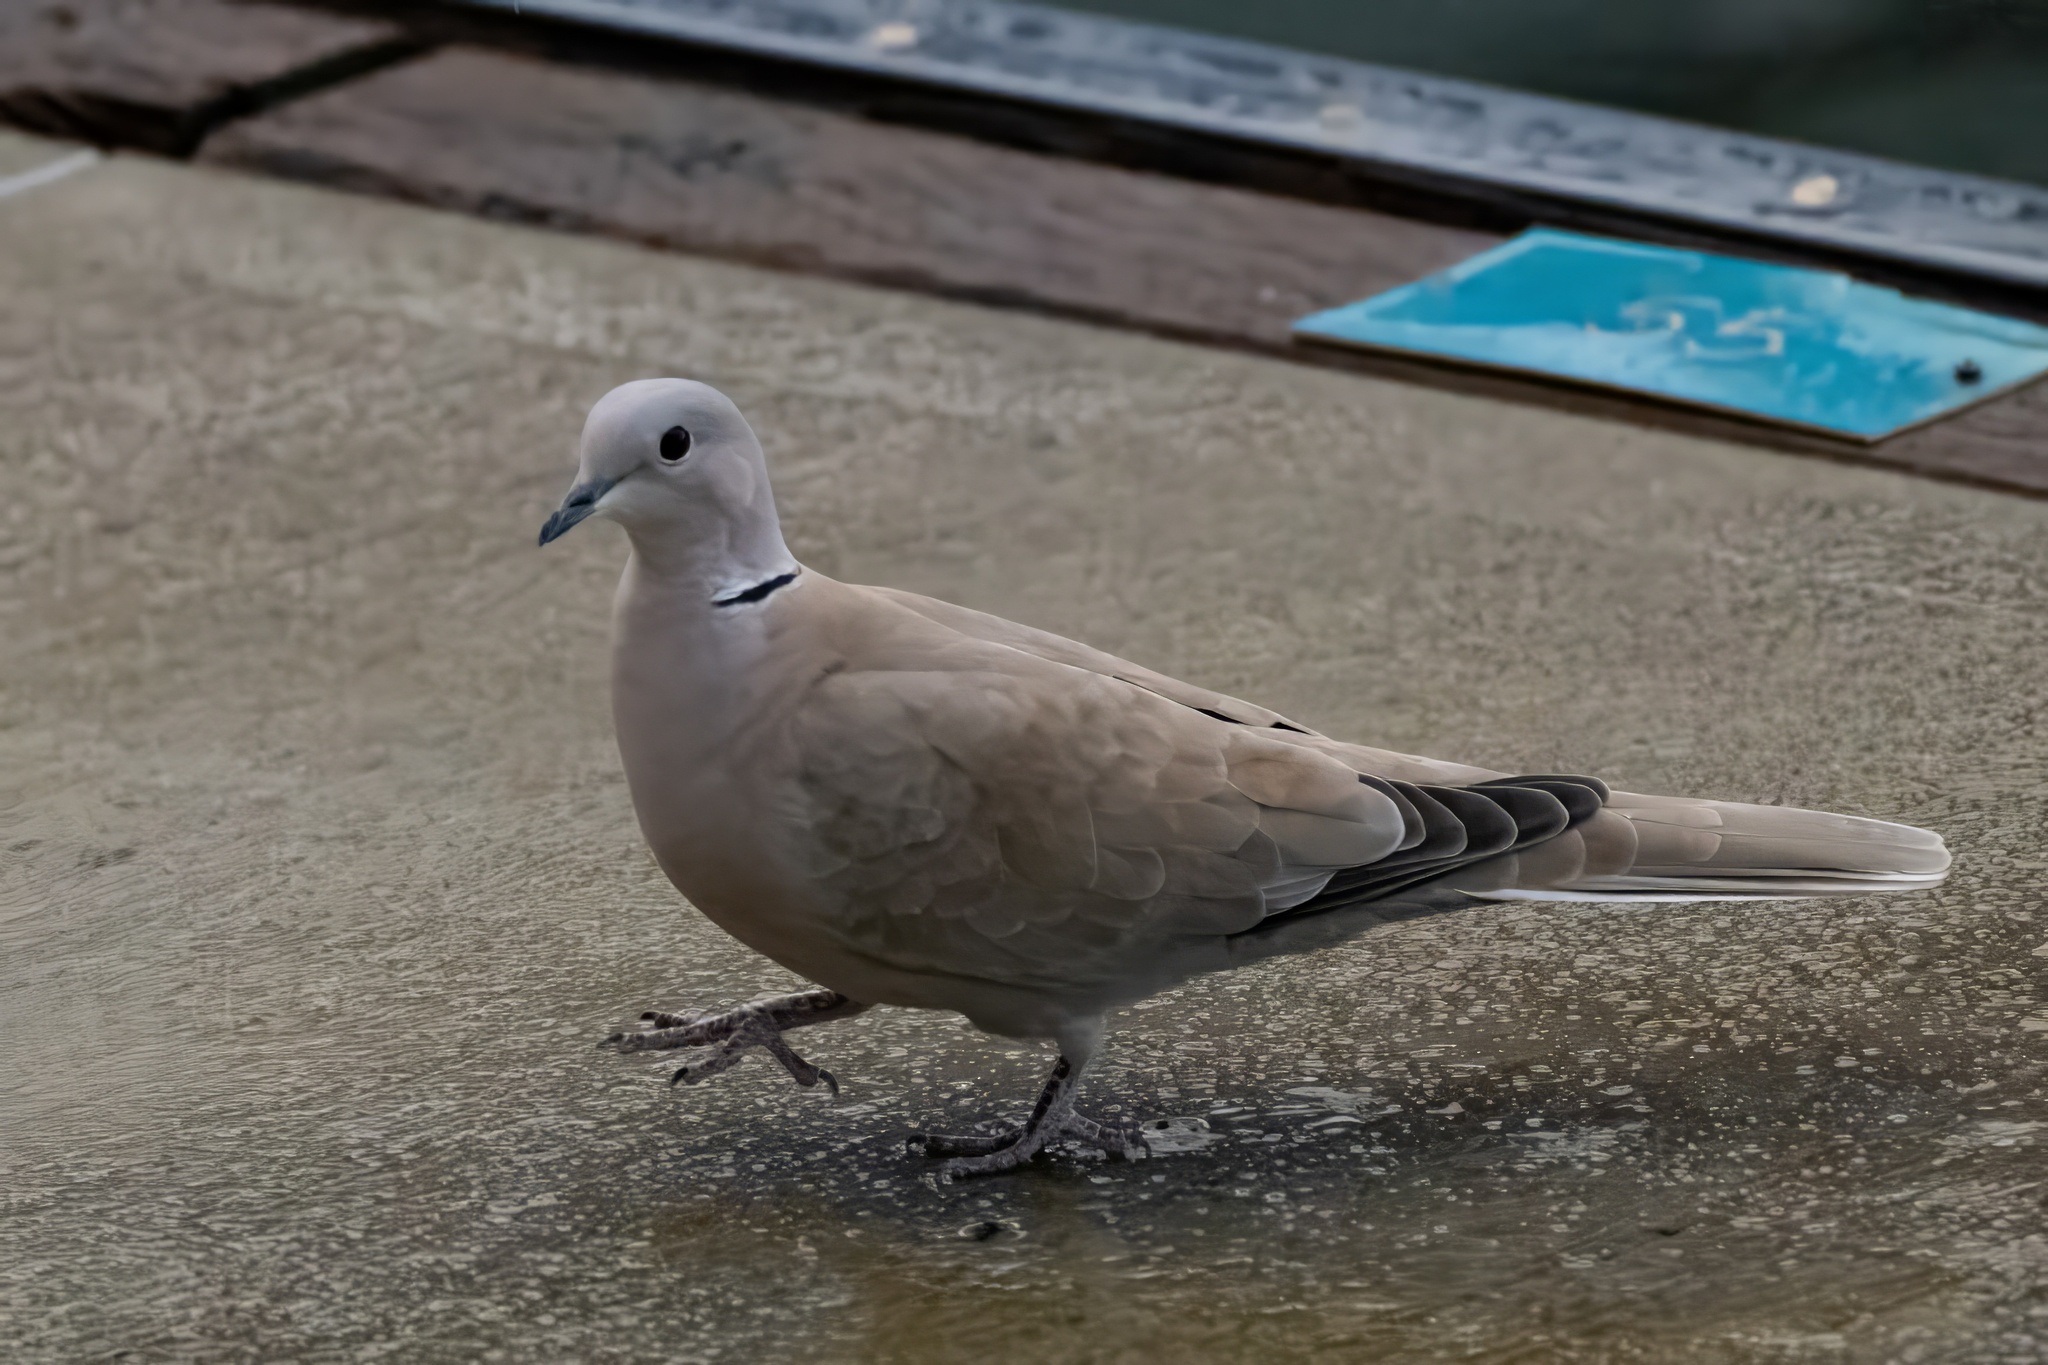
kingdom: Animalia
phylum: Chordata
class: Aves
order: Columbiformes
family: Columbidae
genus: Streptopelia
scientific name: Streptopelia decaocto
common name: Eurasian collared dove
